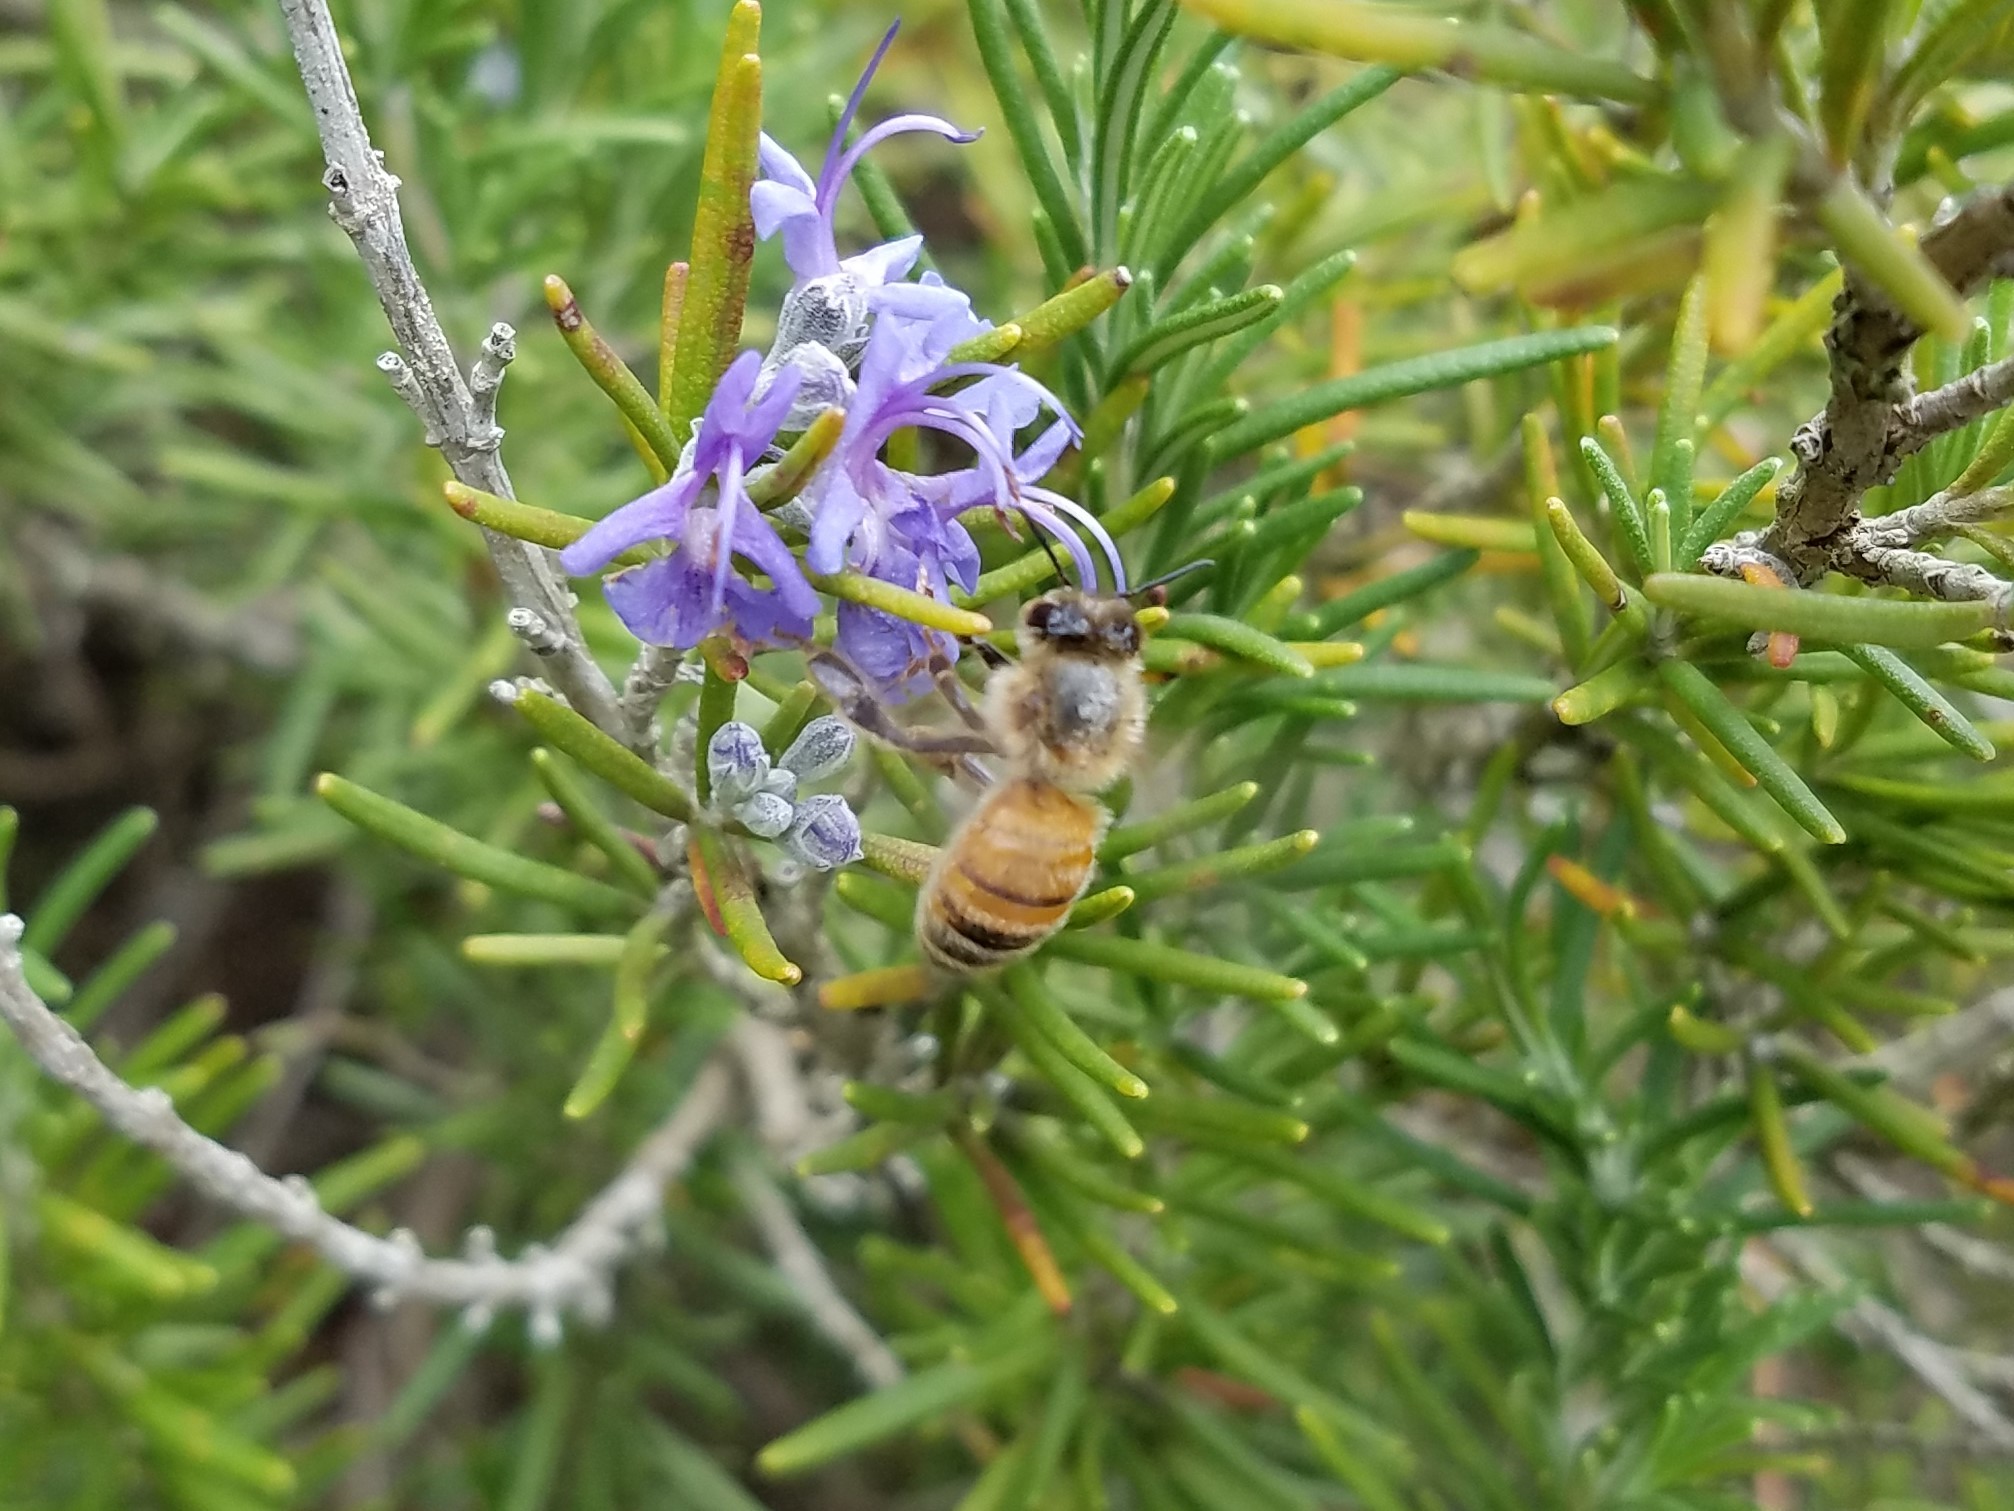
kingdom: Animalia
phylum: Arthropoda
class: Insecta
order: Hymenoptera
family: Apidae
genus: Apis
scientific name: Apis mellifera
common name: Honey bee
